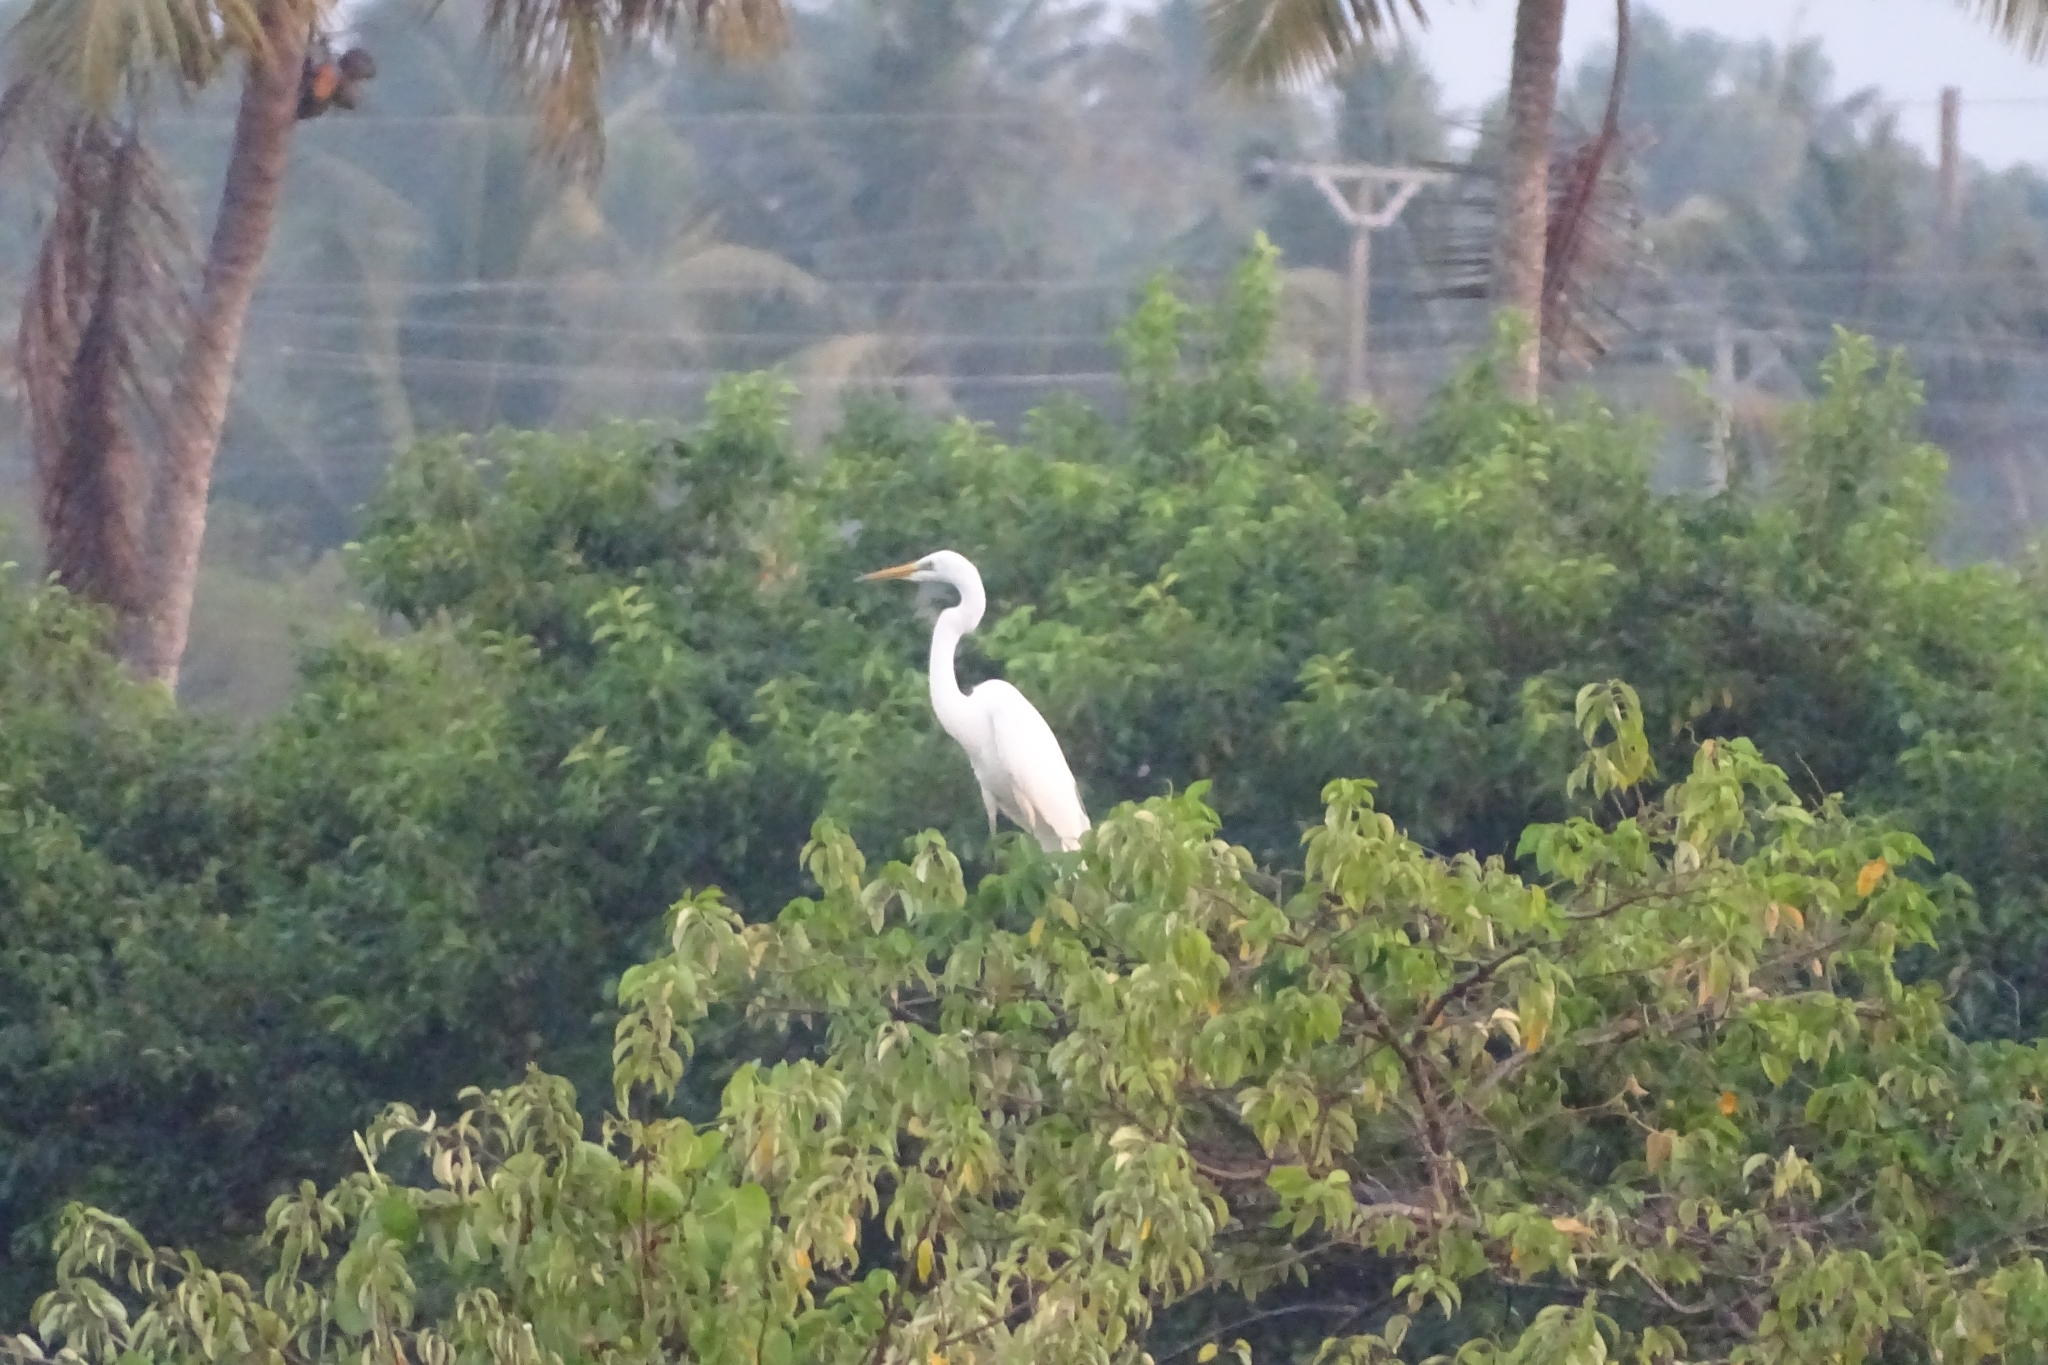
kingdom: Animalia
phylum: Chordata
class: Aves
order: Pelecaniformes
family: Ardeidae
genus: Ardea
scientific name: Ardea alba
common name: Great egret
